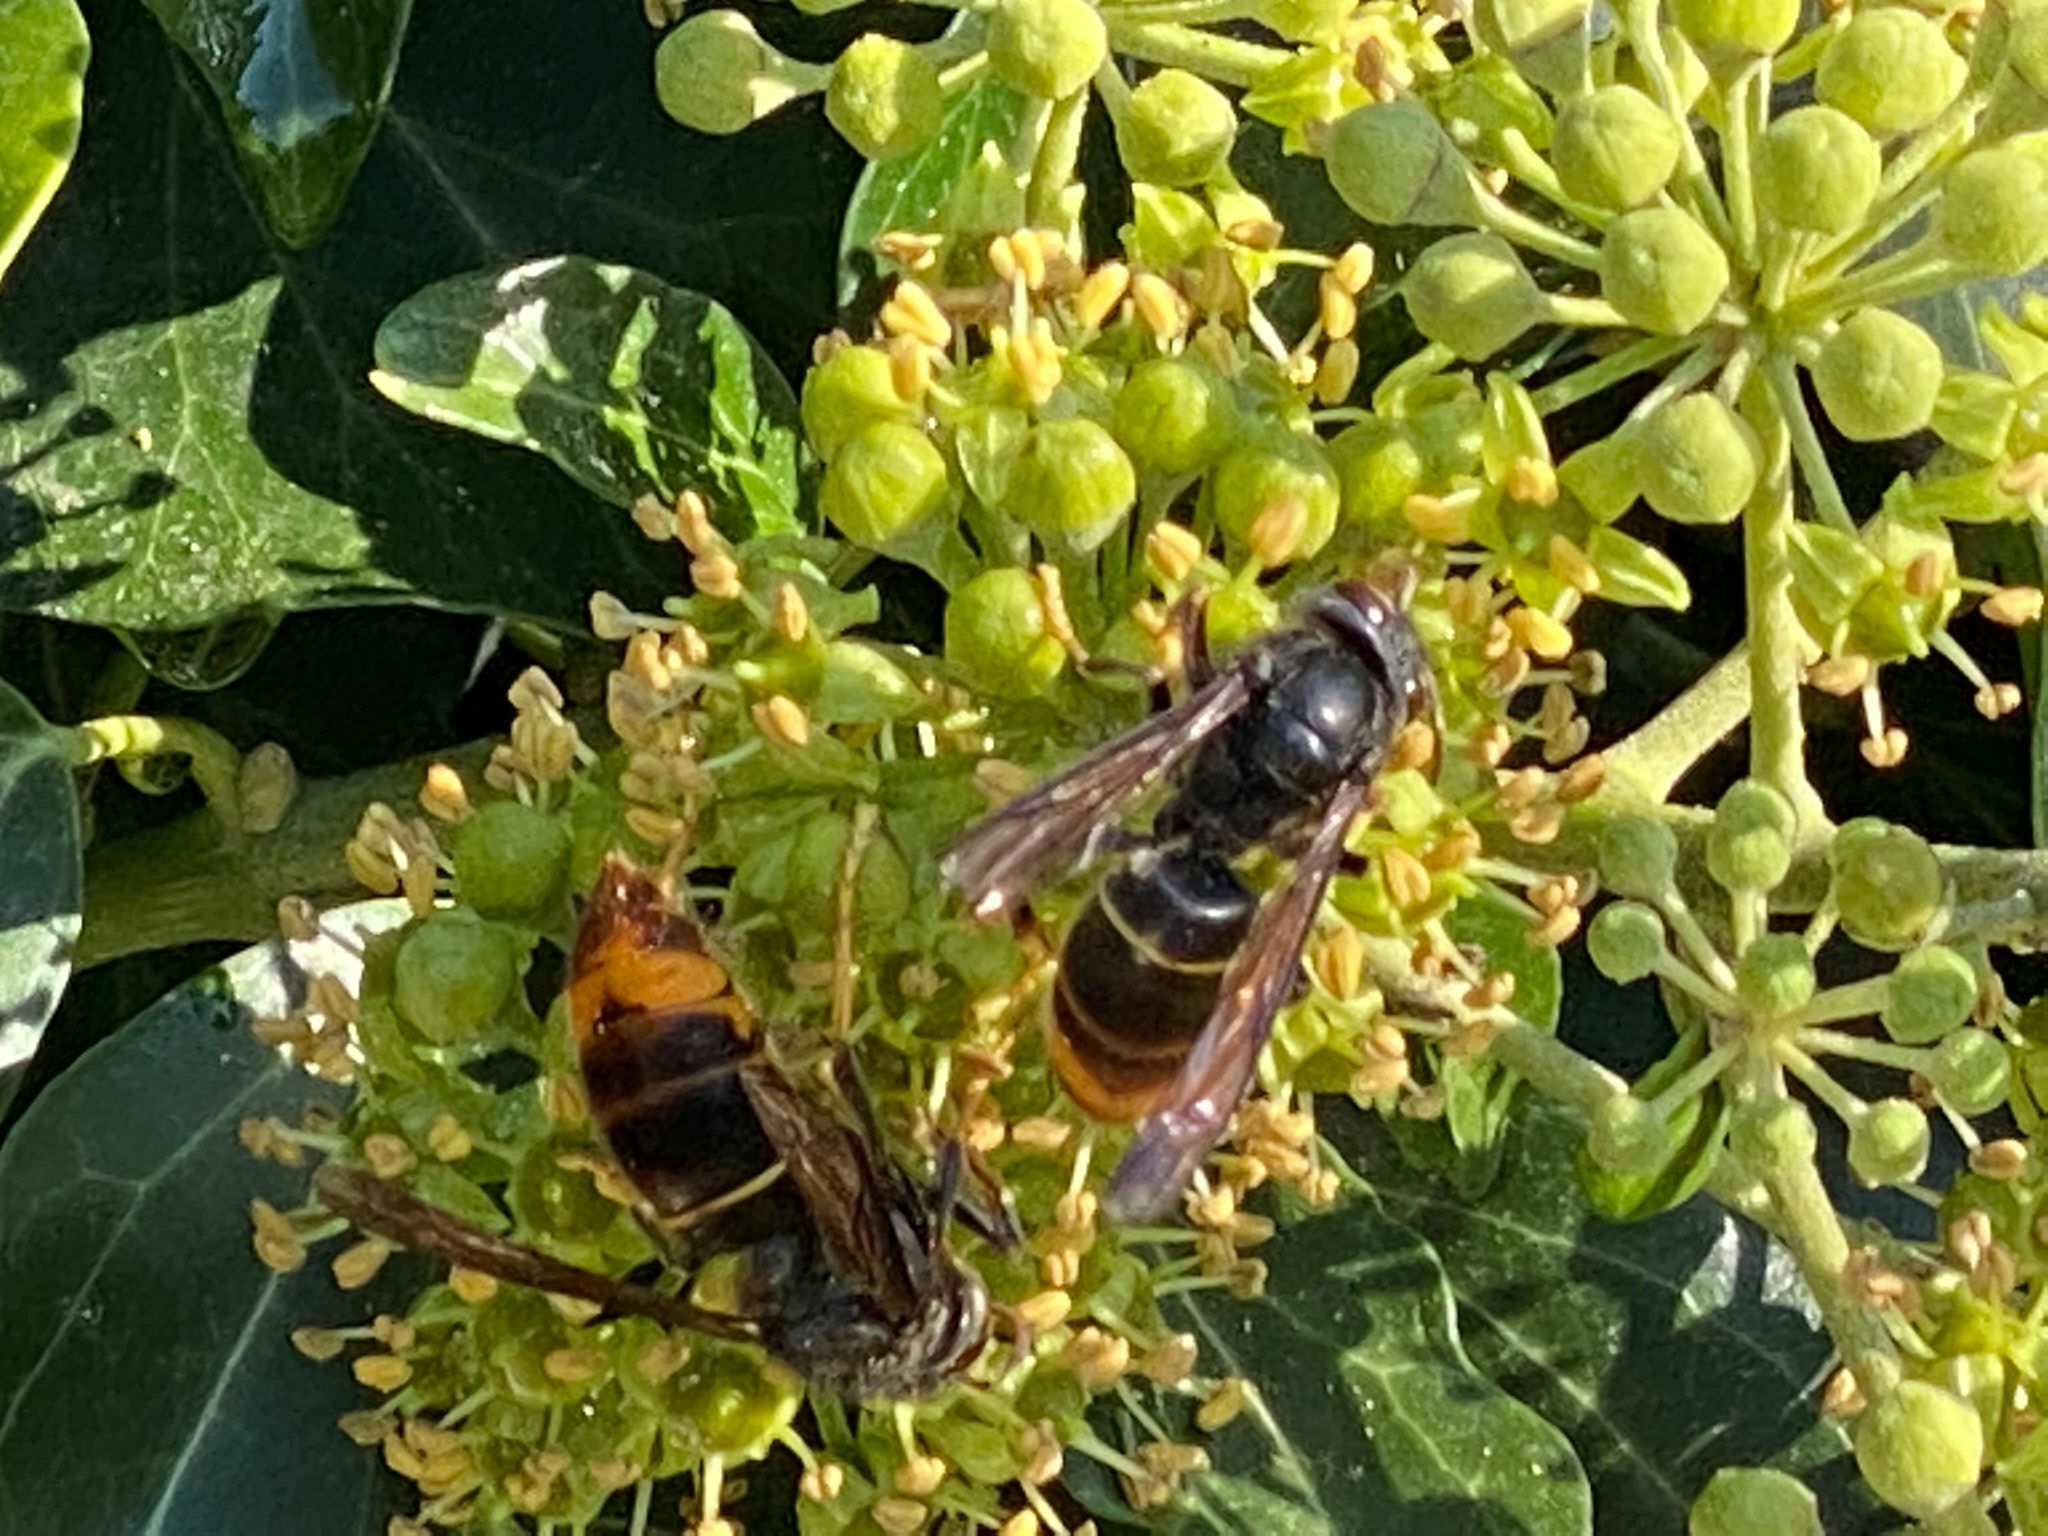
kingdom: Animalia
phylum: Arthropoda
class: Insecta
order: Hymenoptera
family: Vespidae
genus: Vespa
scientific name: Vespa velutina
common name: Asian hornet
